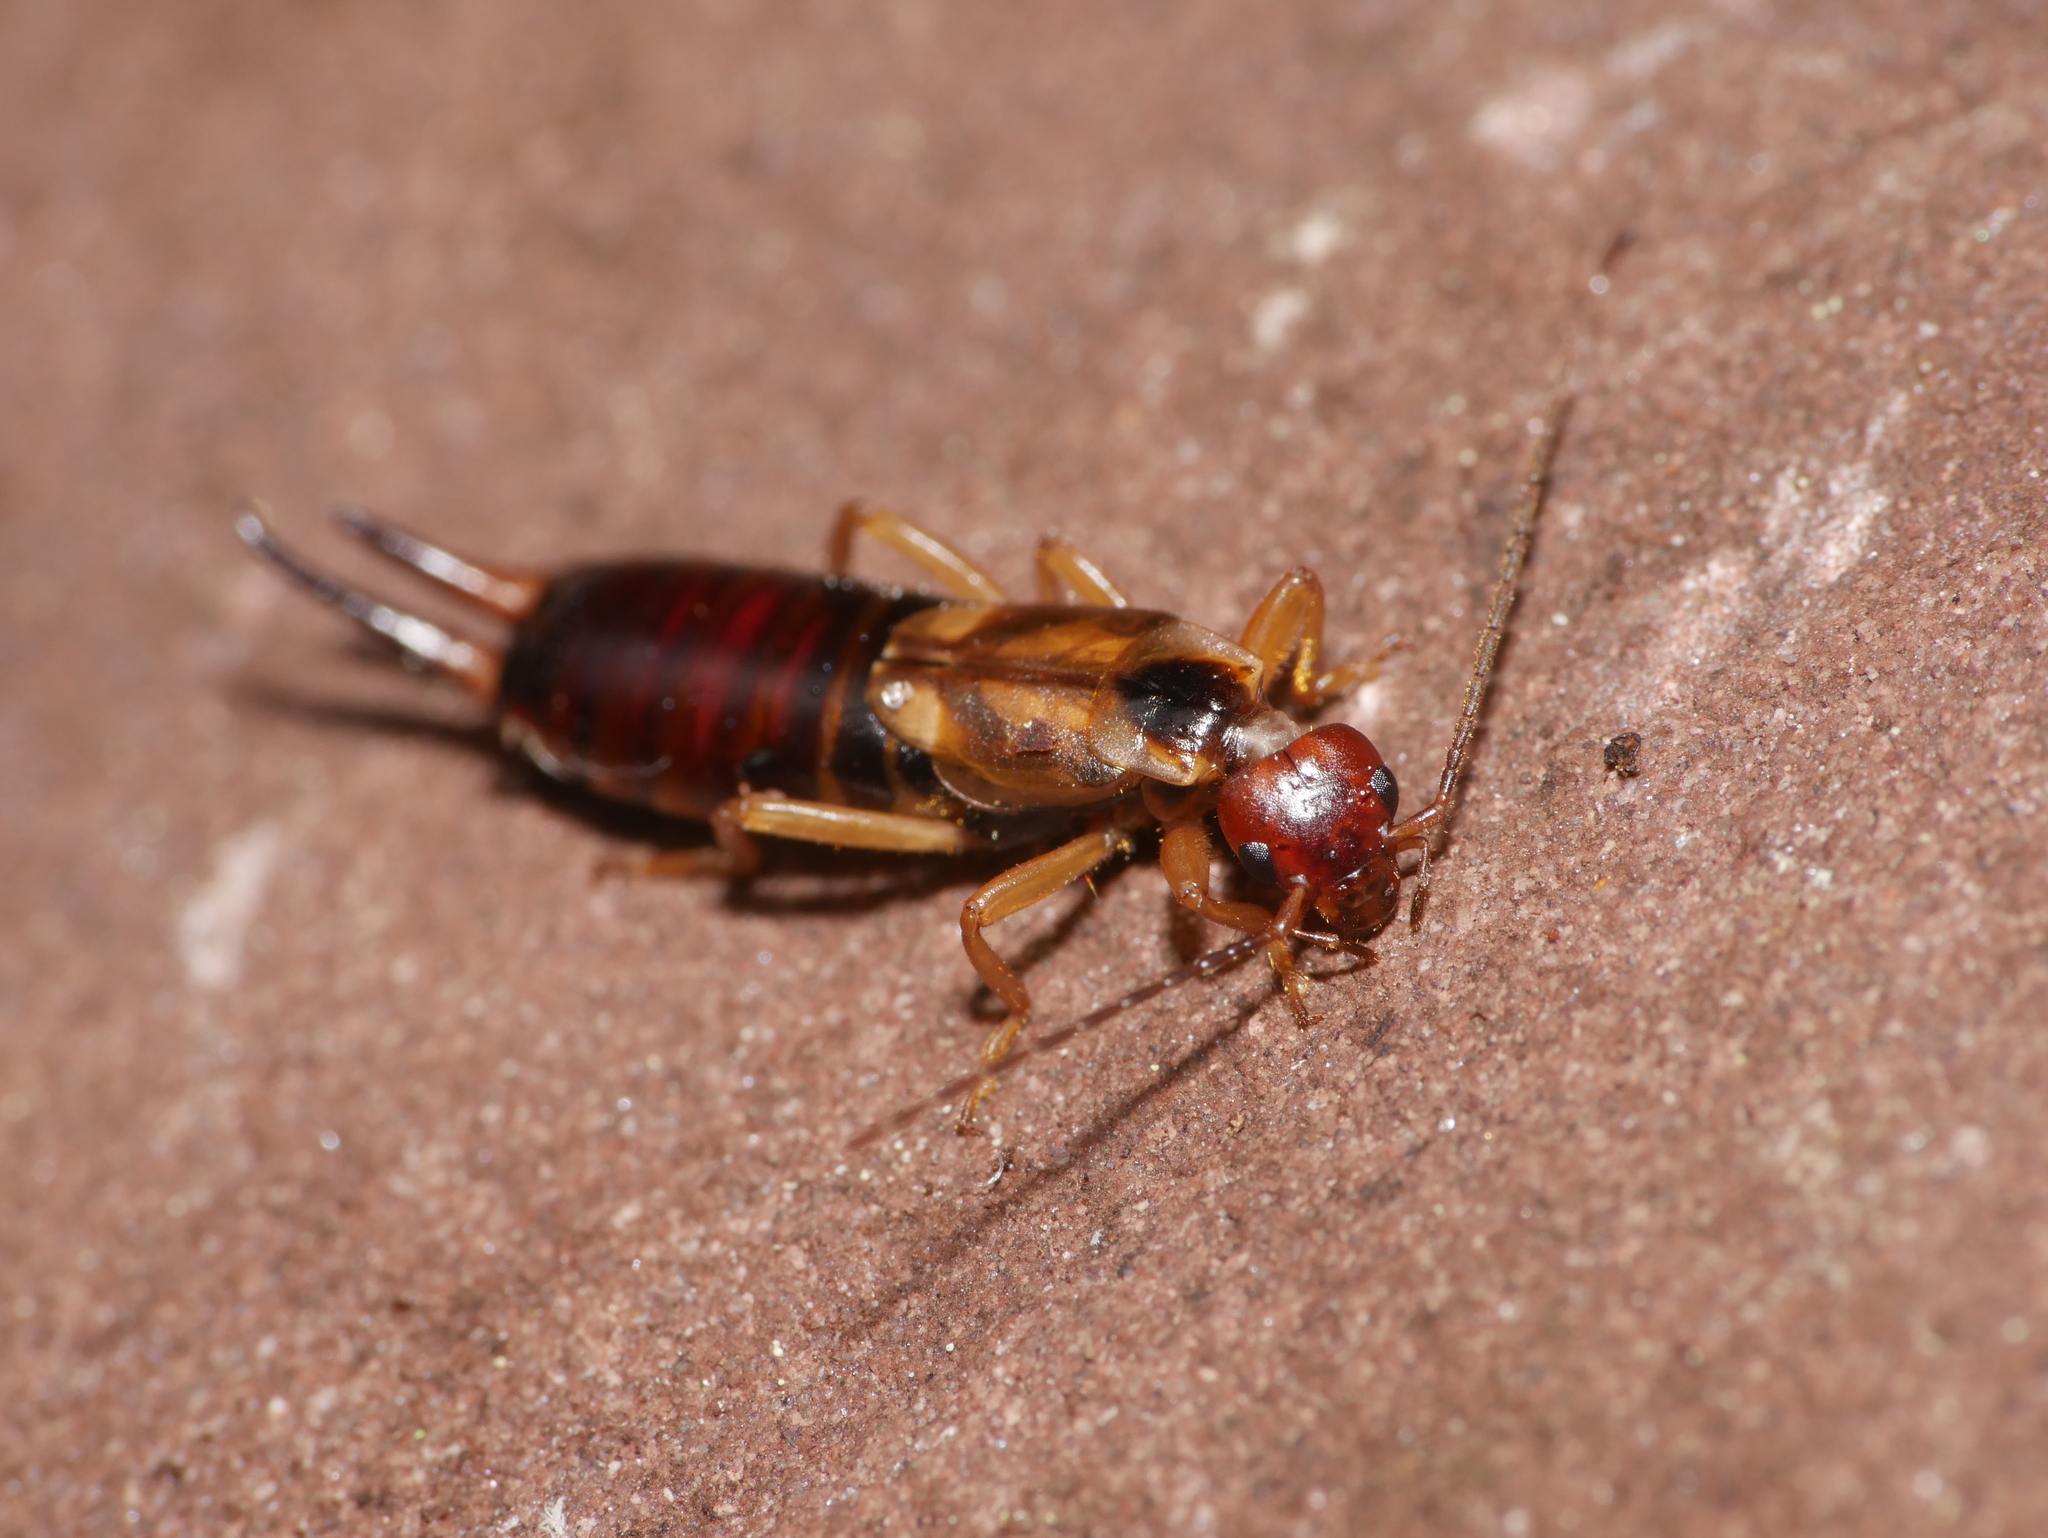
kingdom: Animalia
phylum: Arthropoda
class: Insecta
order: Dermaptera
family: Forficulidae
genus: Forficula
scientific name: Forficula
